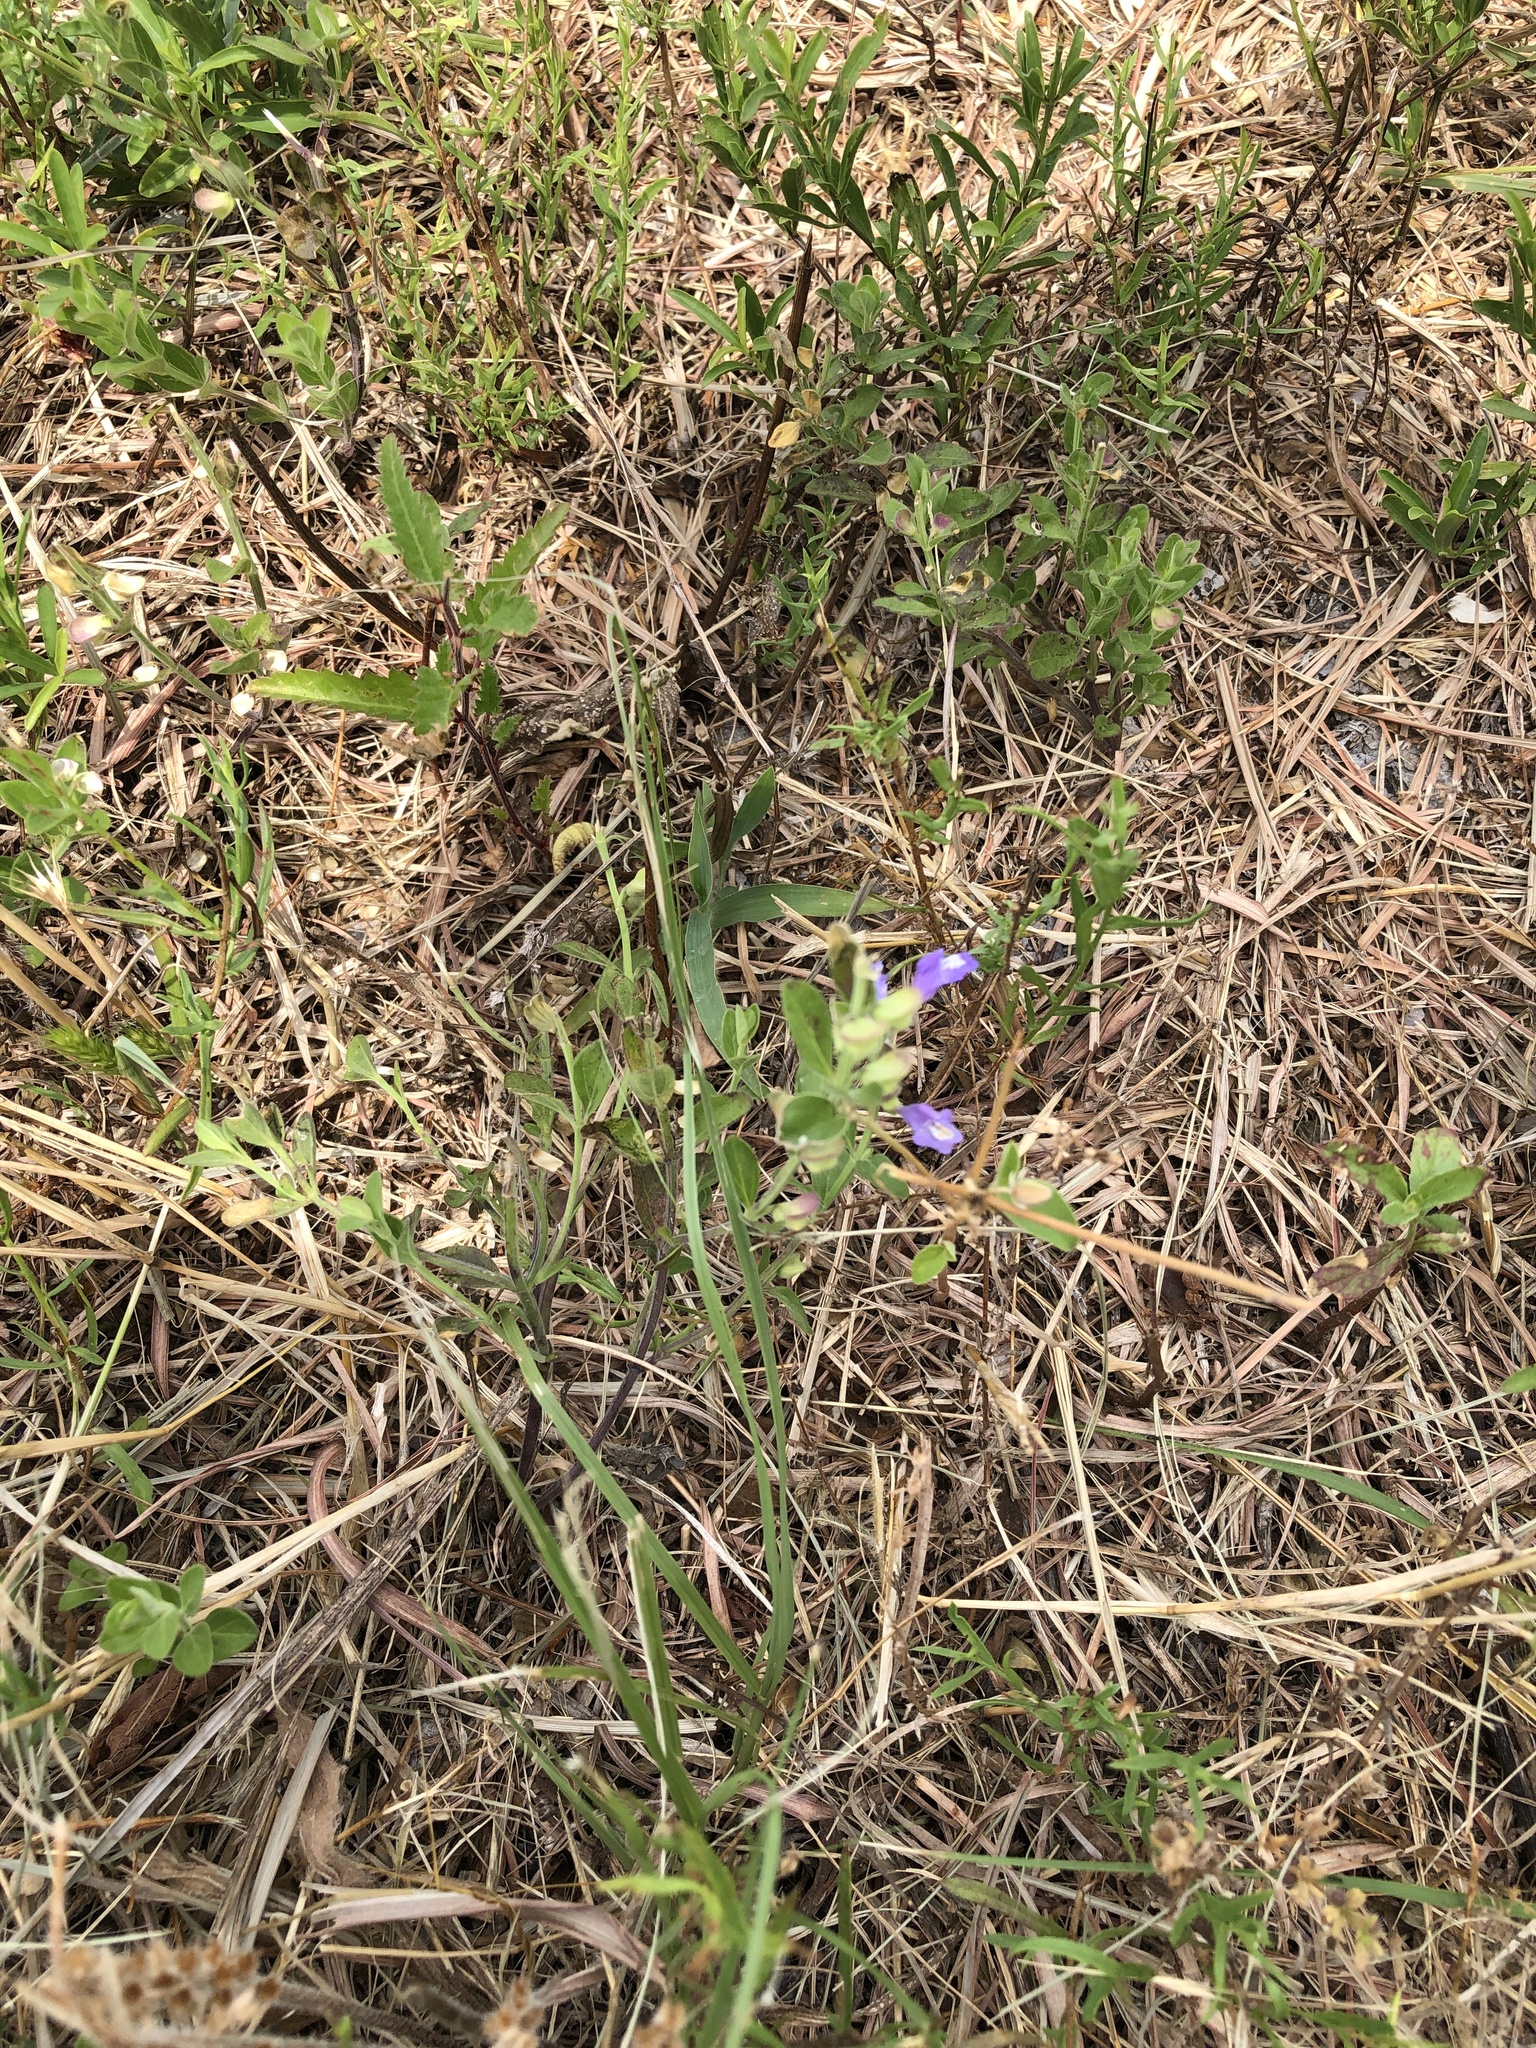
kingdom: Plantae
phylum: Tracheophyta
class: Magnoliopsida
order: Lamiales
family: Lamiaceae
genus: Scutellaria
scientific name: Scutellaria drummondii
